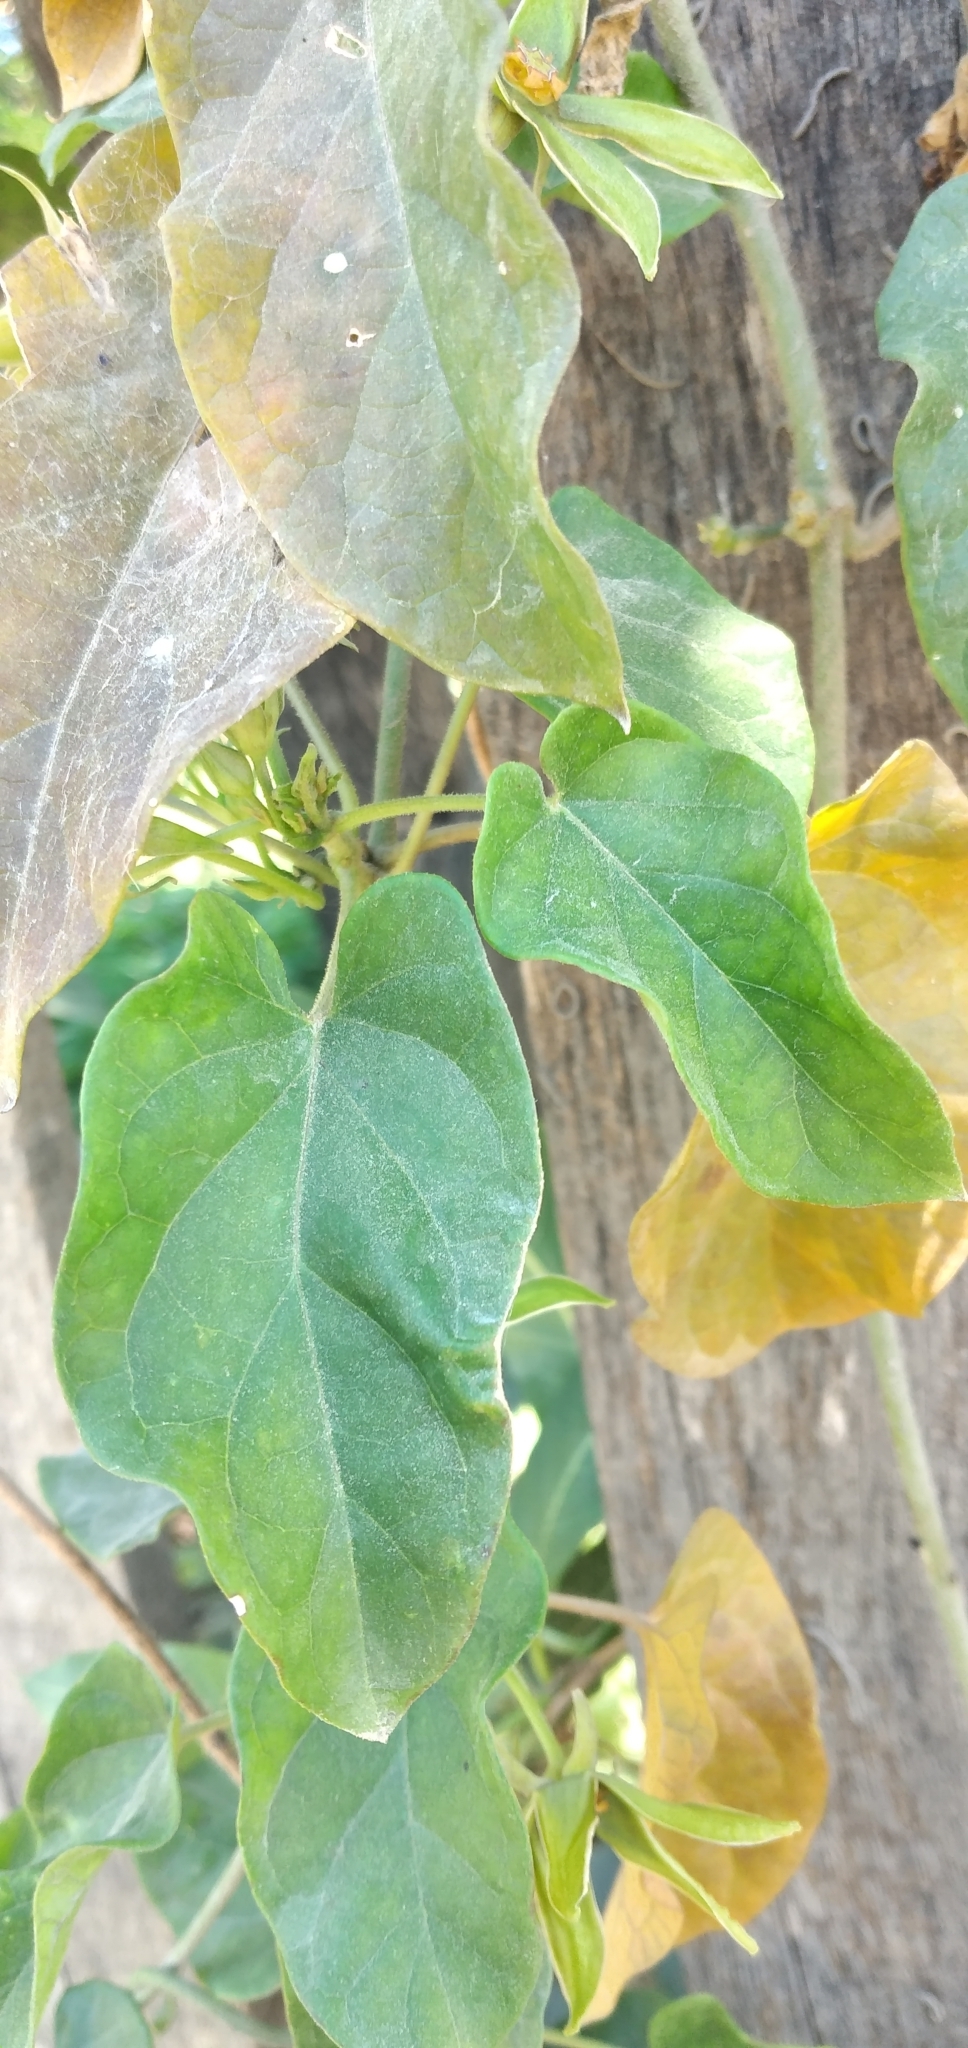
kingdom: Plantae
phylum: Tracheophyta
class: Magnoliopsida
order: Gentianales
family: Apocynaceae
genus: Gonolobus
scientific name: Gonolobus rostratus
